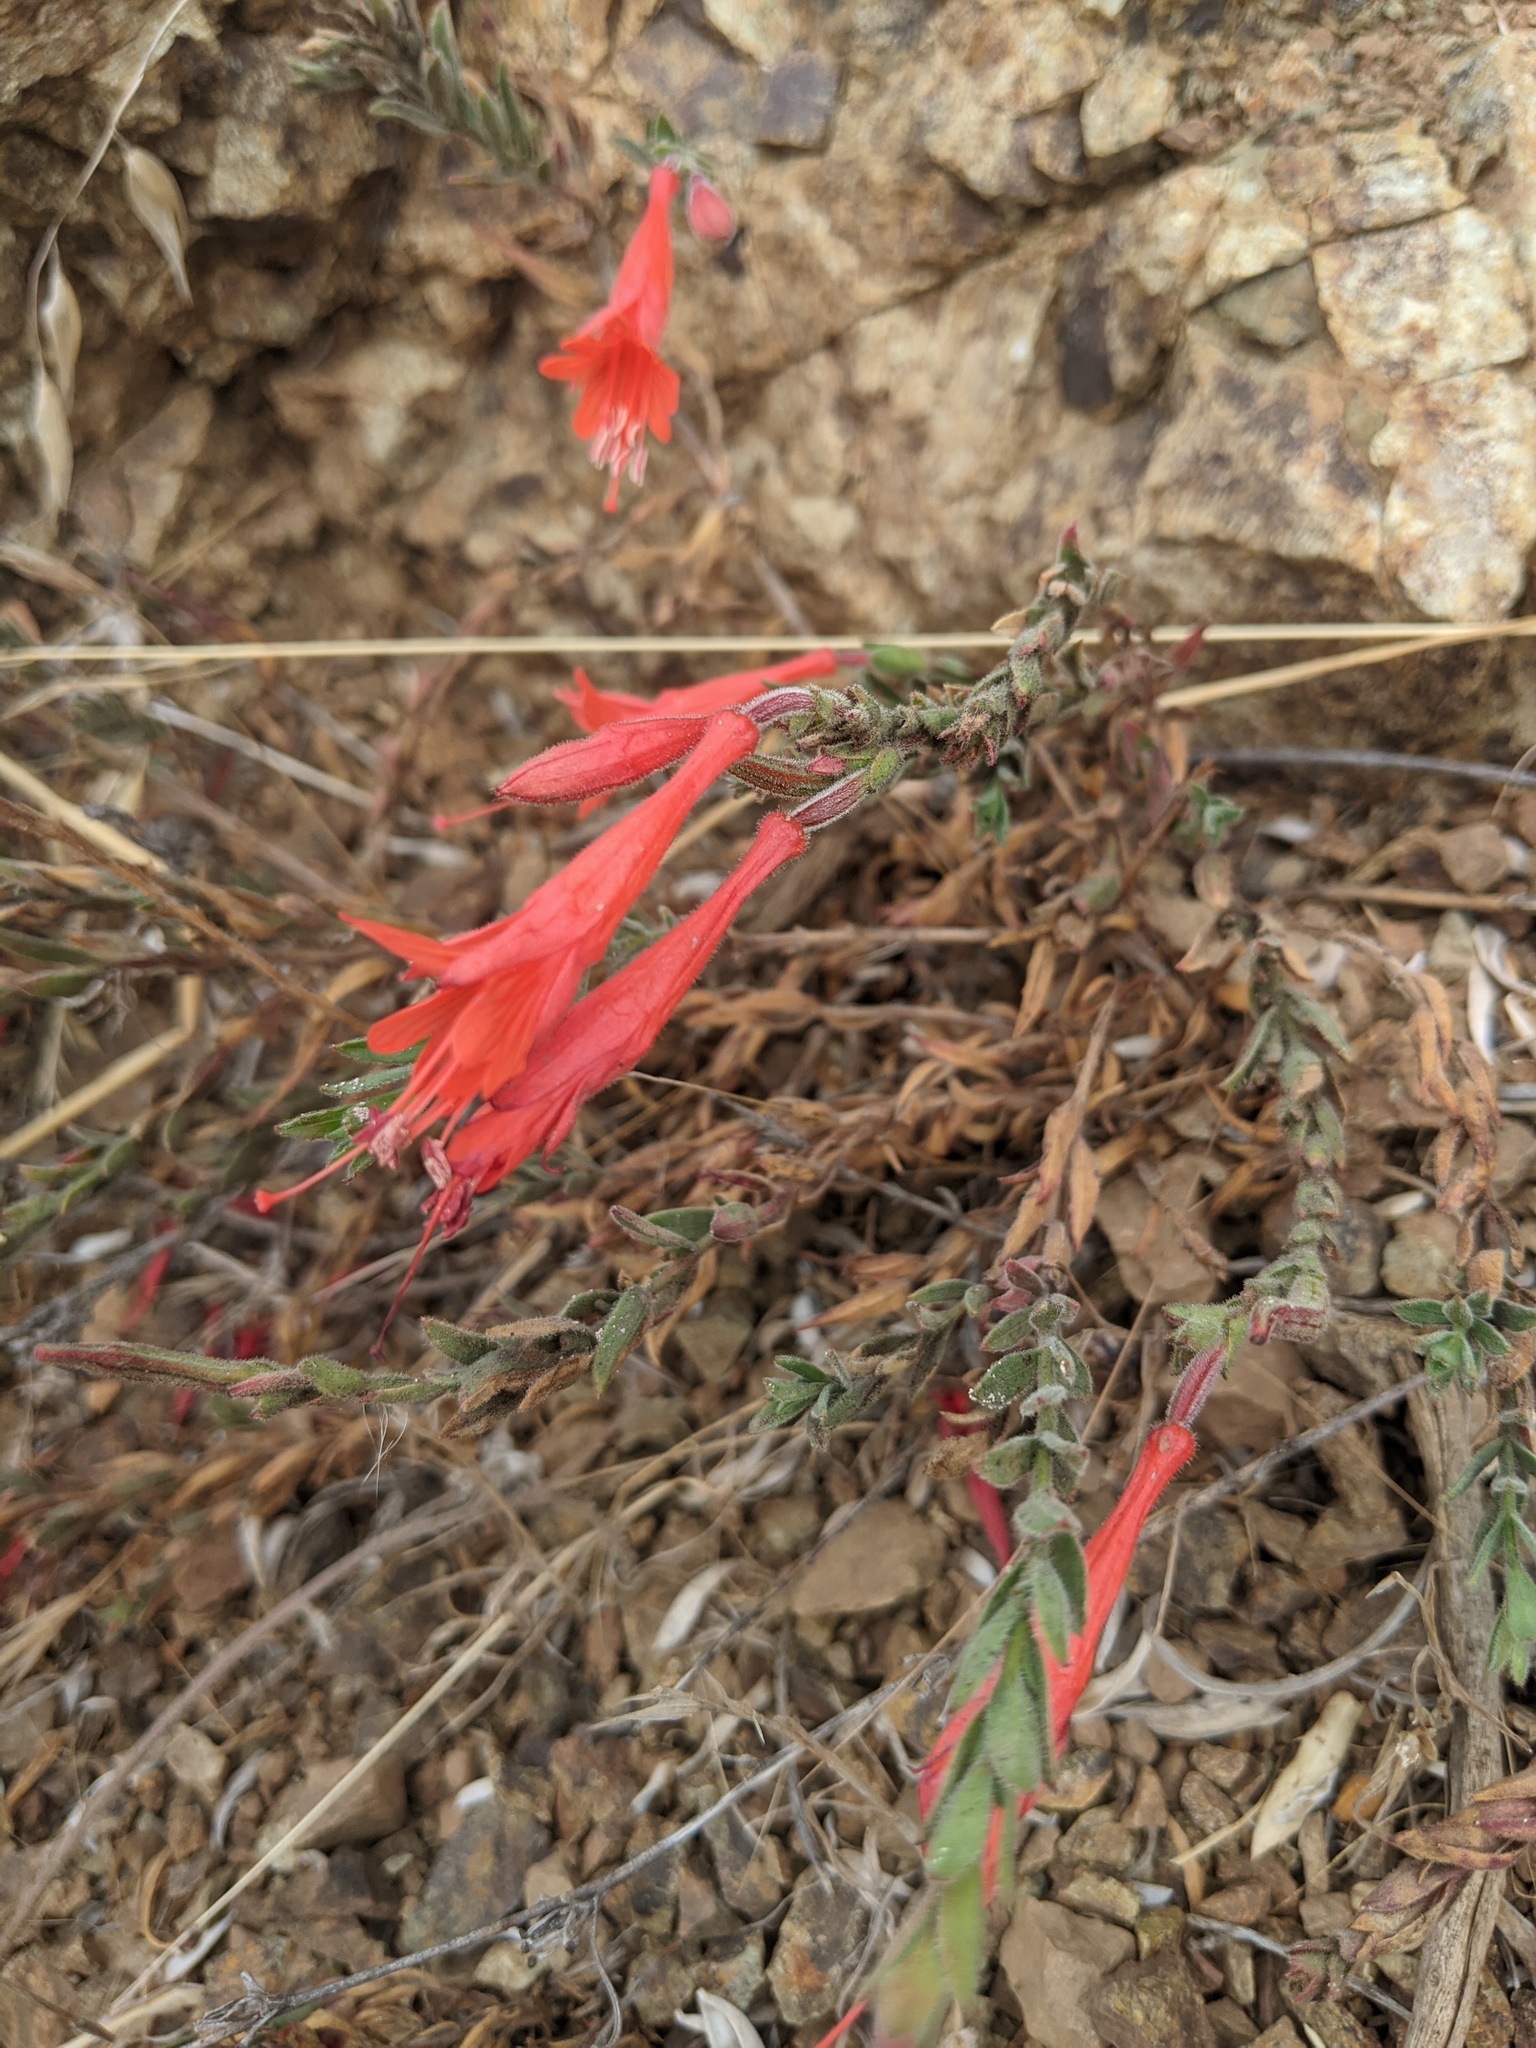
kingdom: Plantae
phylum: Tracheophyta
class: Magnoliopsida
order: Myrtales
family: Onagraceae
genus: Epilobium
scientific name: Epilobium canum
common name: California-fuchsia
